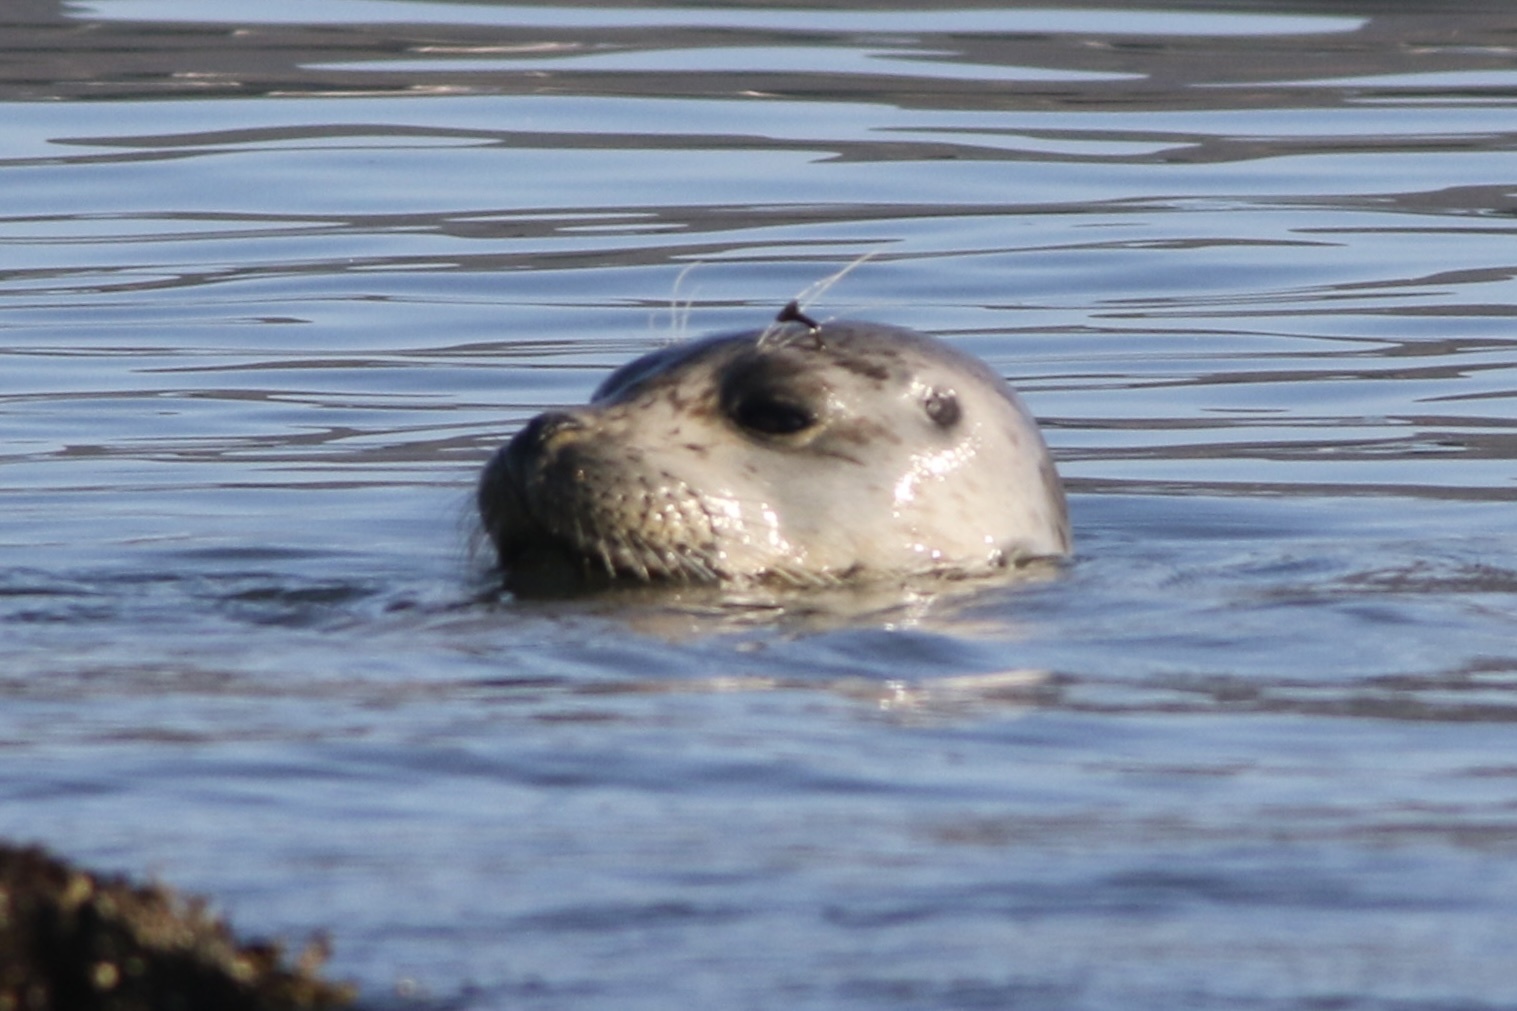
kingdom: Animalia
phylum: Chordata
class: Mammalia
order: Carnivora
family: Phocidae
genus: Phoca
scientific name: Phoca vitulina
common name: Harbor seal
